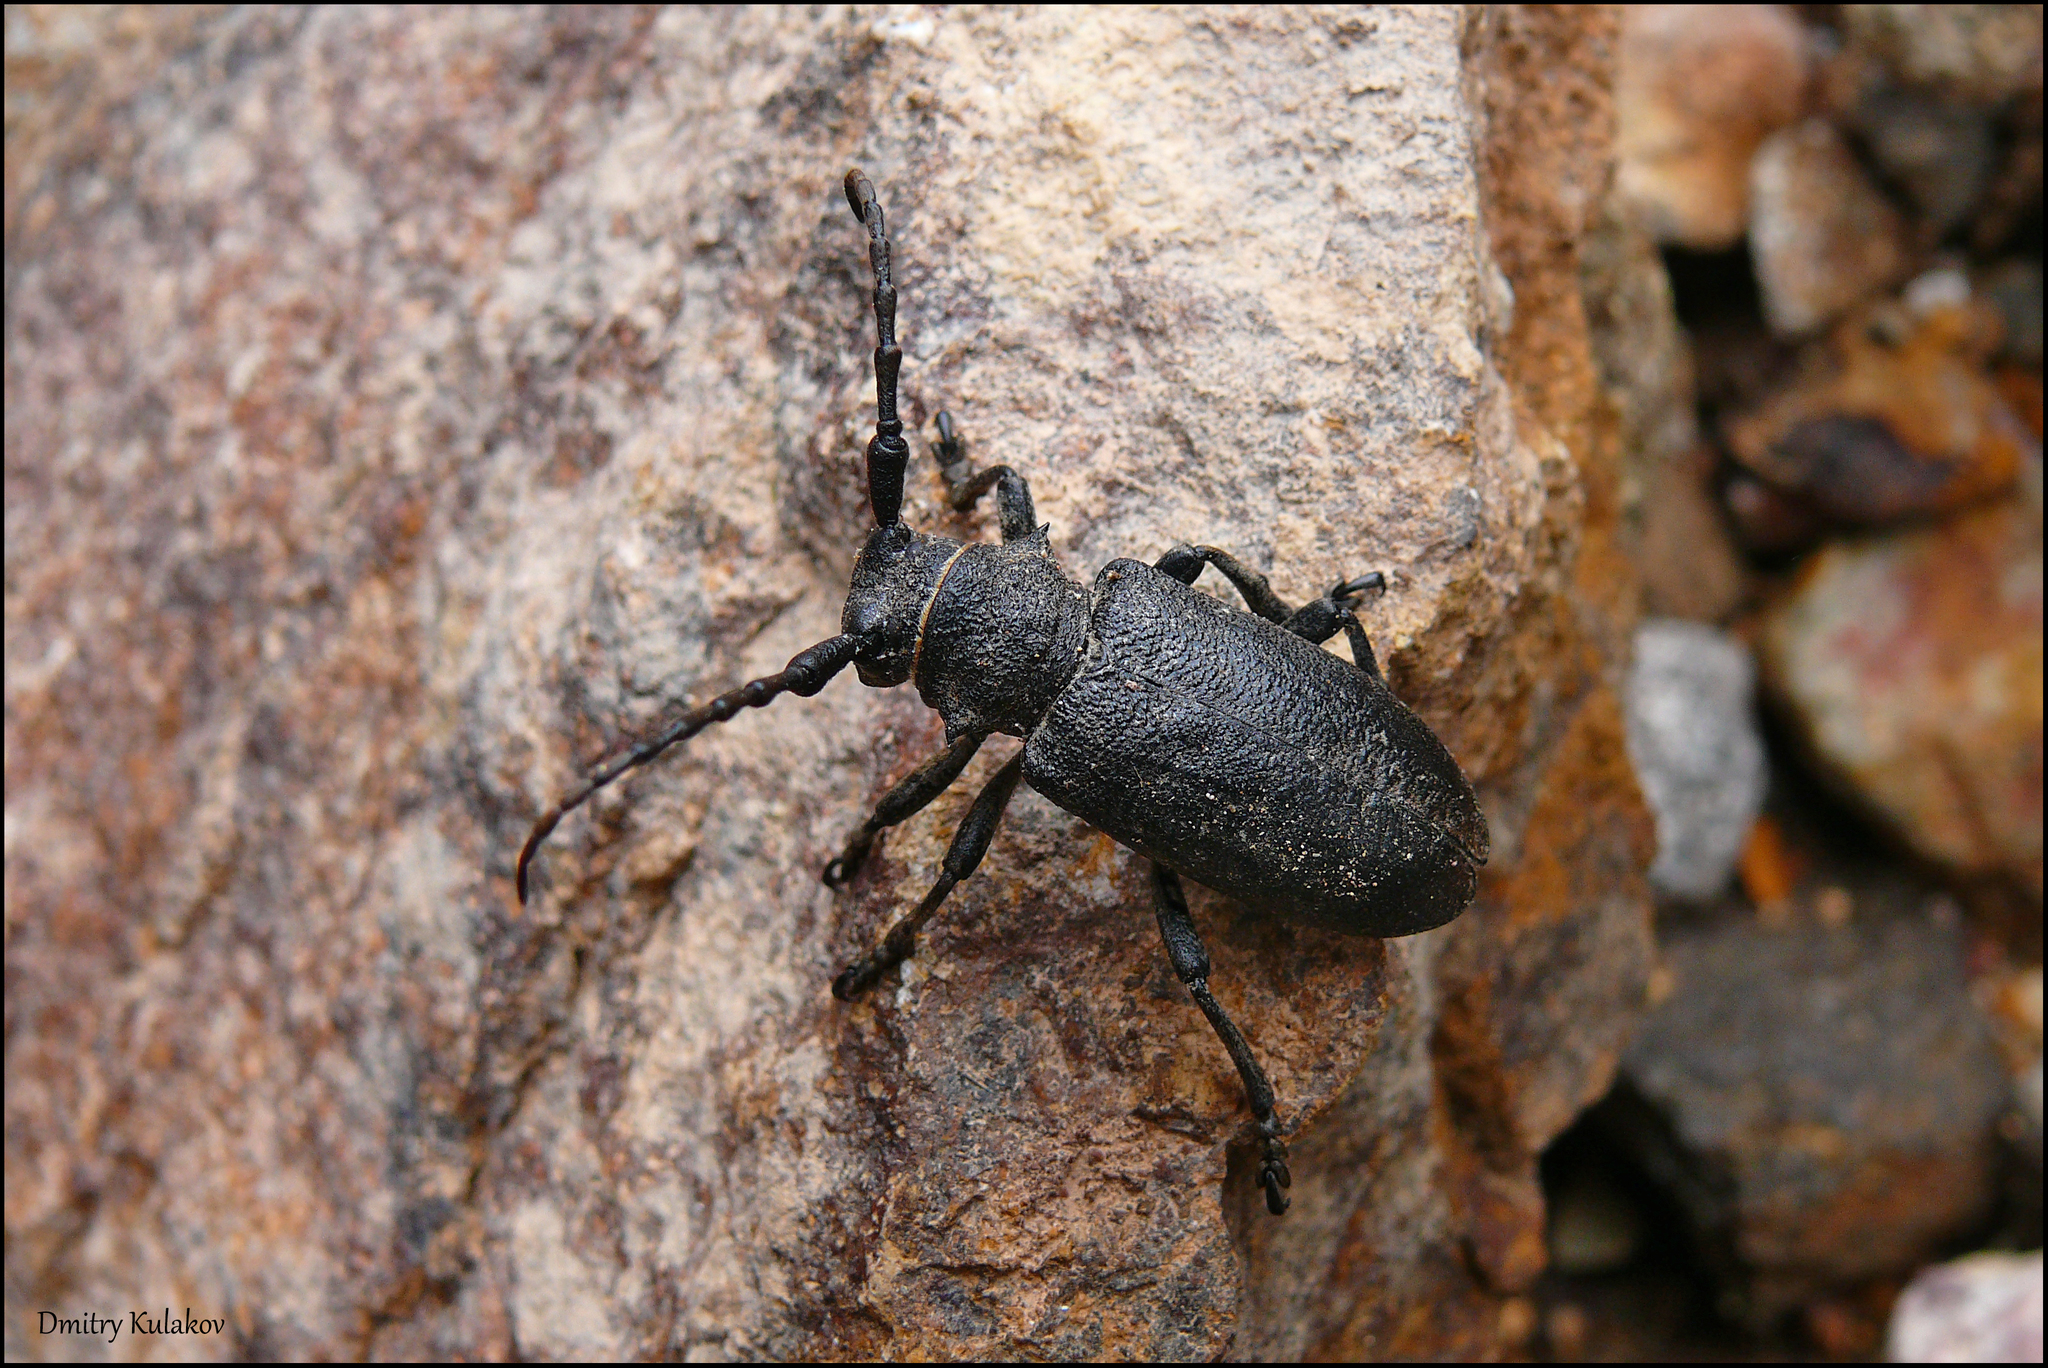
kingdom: Animalia
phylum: Arthropoda
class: Insecta
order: Coleoptera
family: Cerambycidae
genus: Lamia
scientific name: Lamia textor
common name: Weaver beetle
